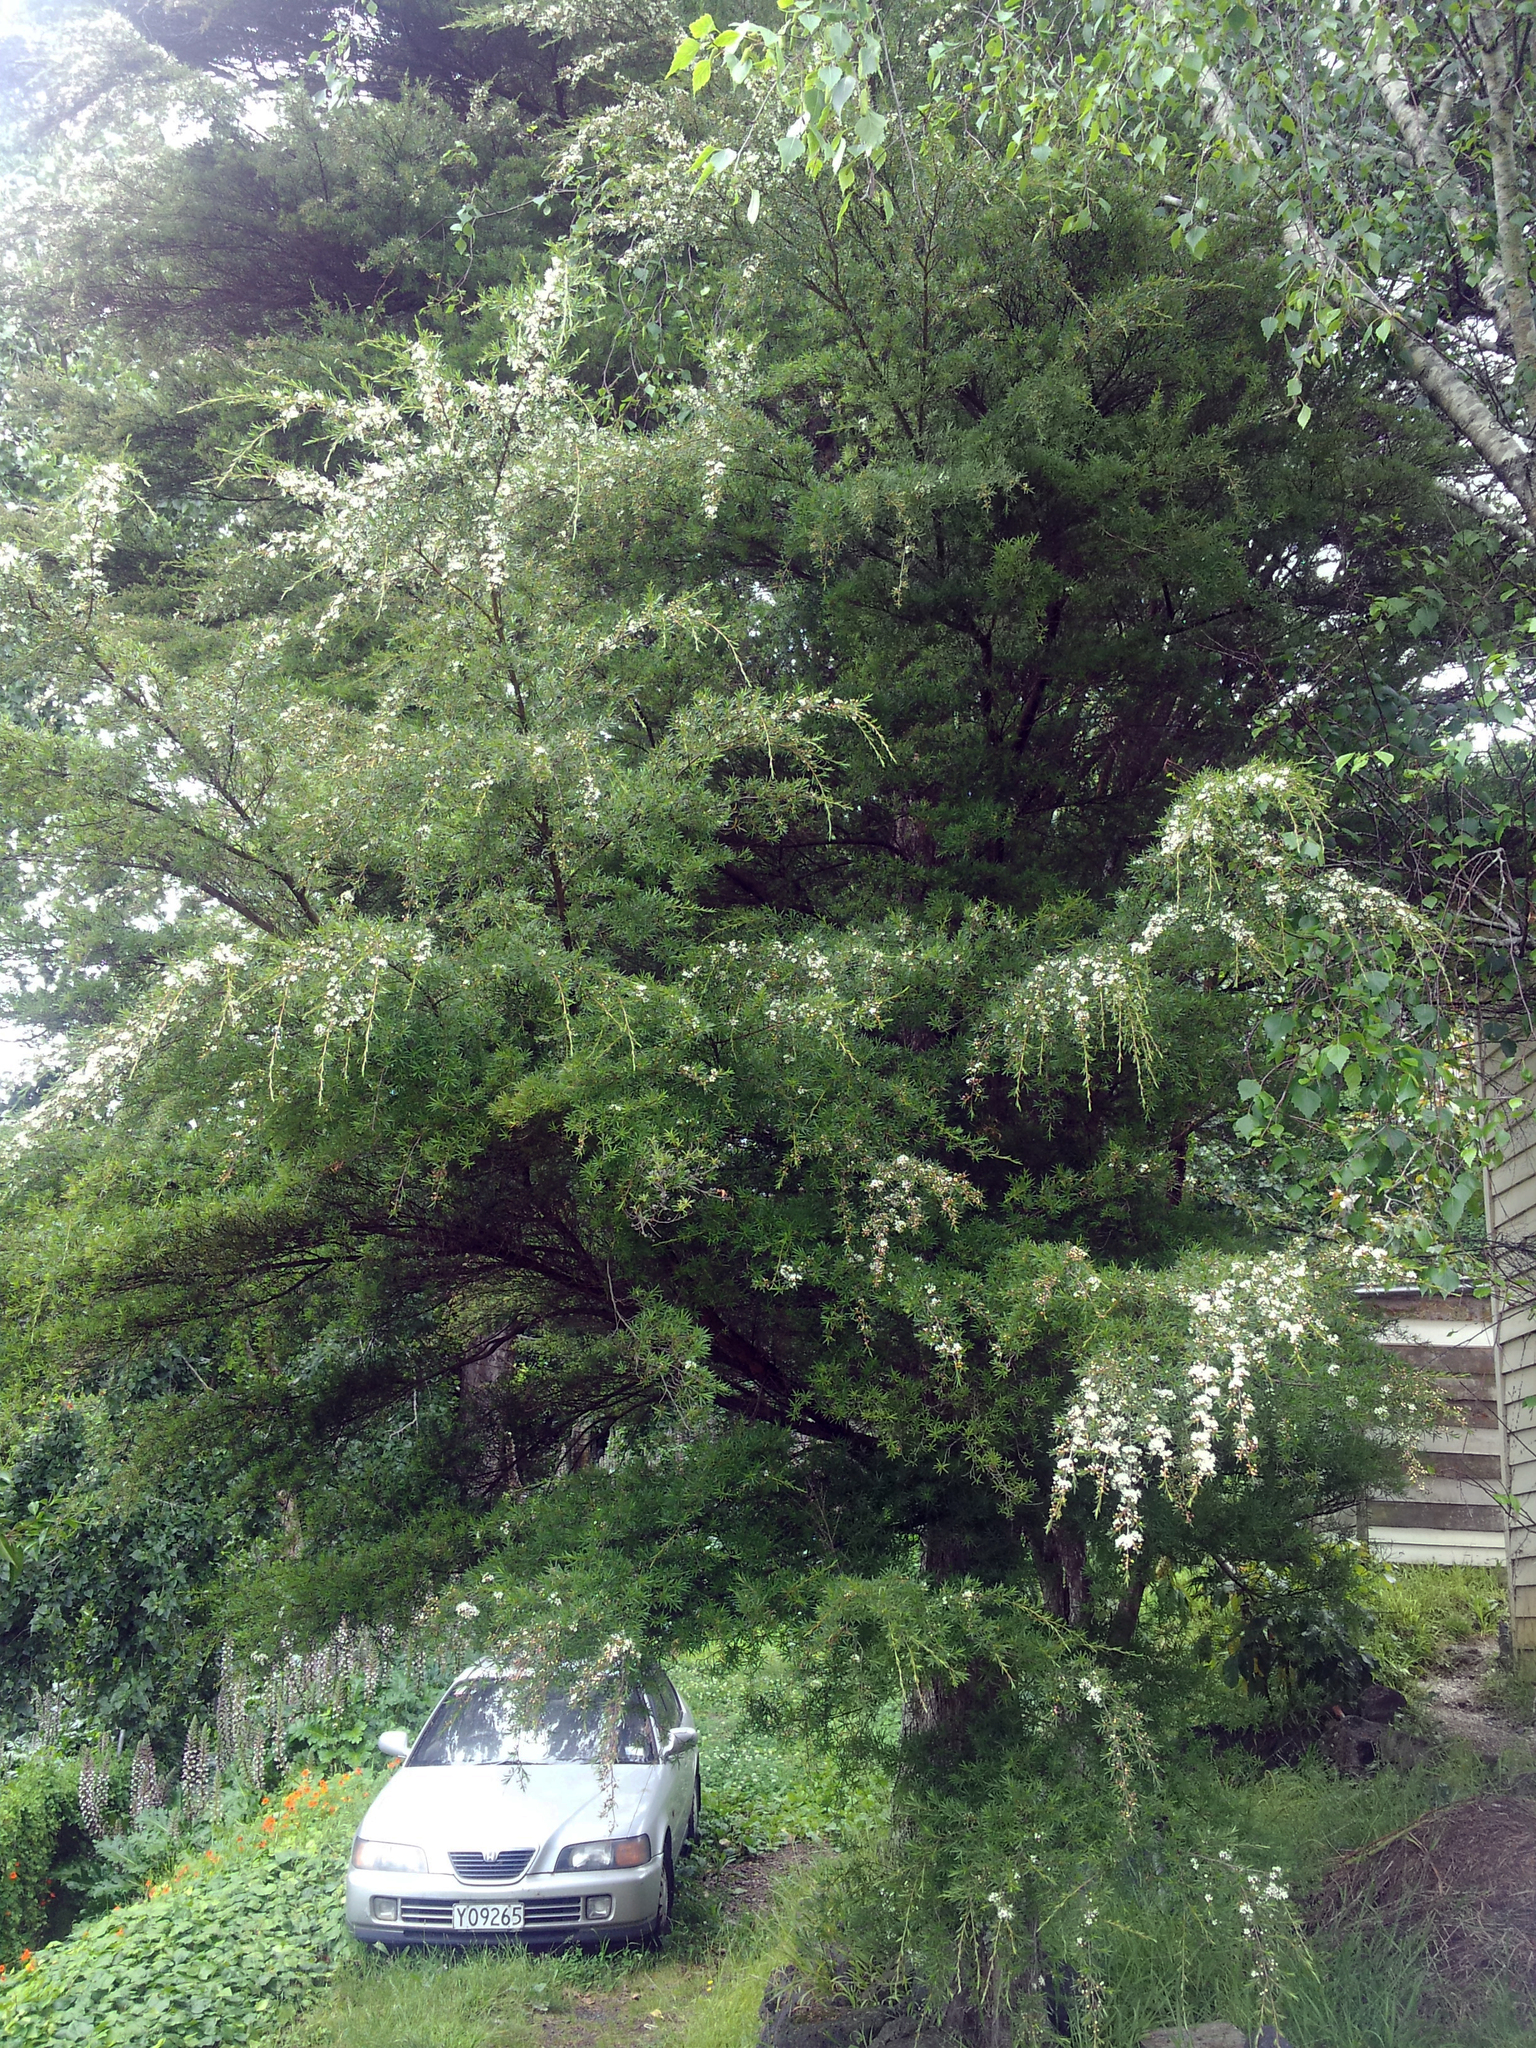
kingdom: Plantae
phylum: Tracheophyta
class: Magnoliopsida
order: Myrtales
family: Myrtaceae
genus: Kunzea
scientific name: Kunzea robusta
